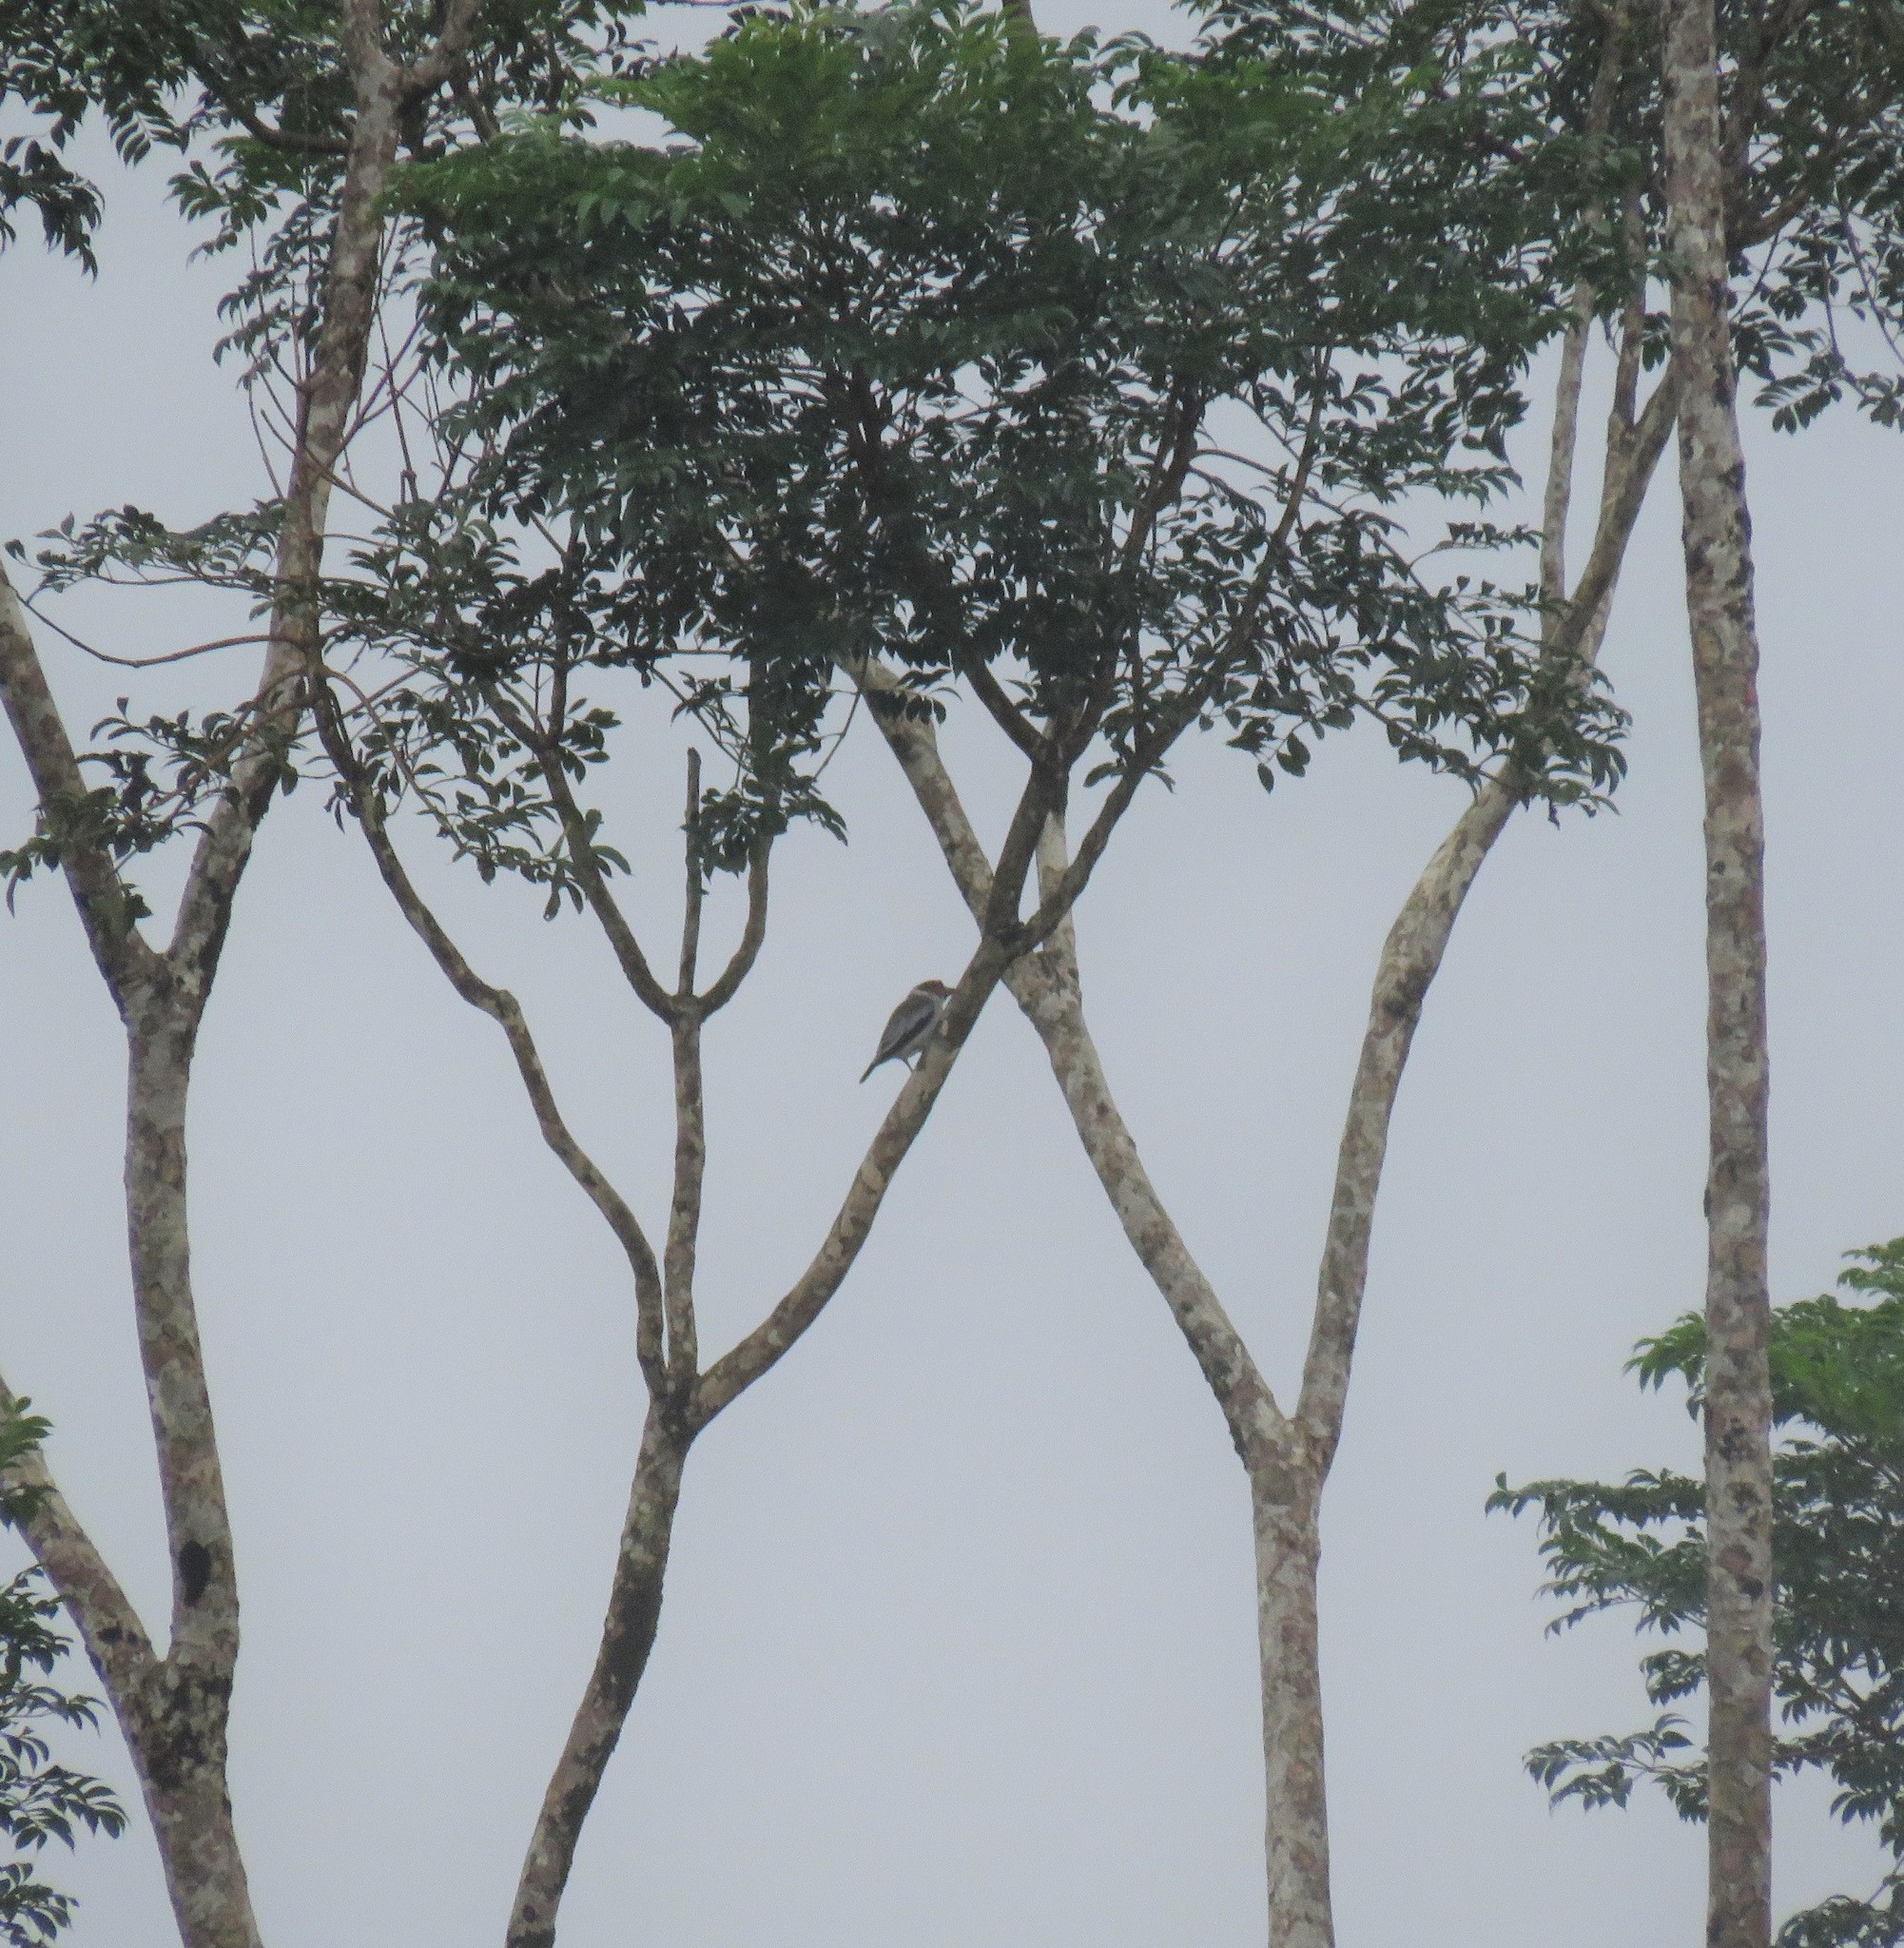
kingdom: Animalia
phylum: Chordata
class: Aves
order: Passeriformes
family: Cotingidae
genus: Tityra
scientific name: Tityra semifasciata
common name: Masked tityra
